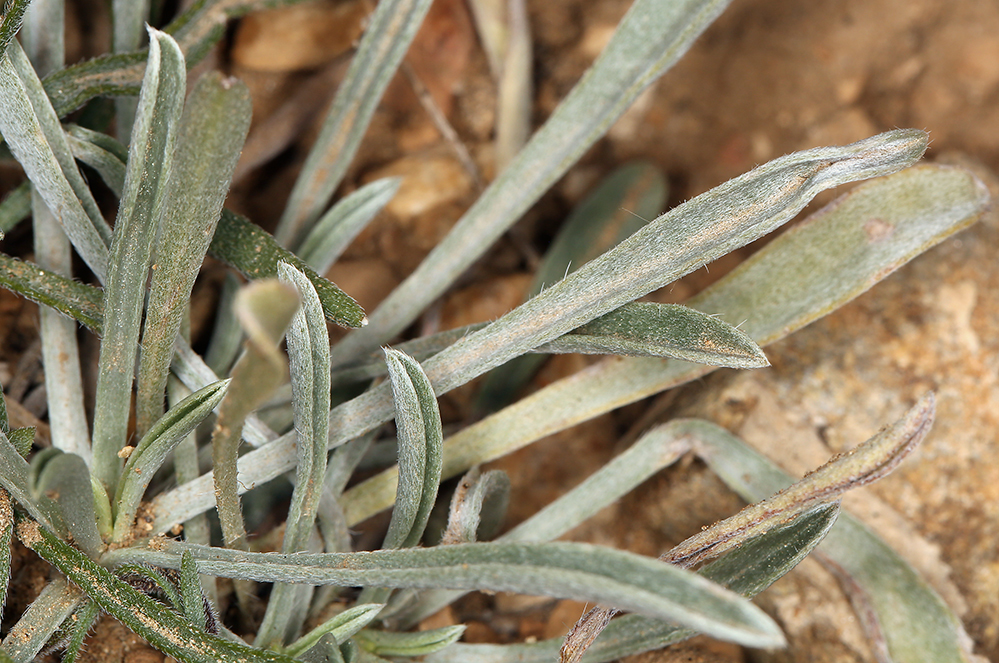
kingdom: Plantae
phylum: Tracheophyta
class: Magnoliopsida
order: Asterales
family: Asteraceae
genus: Erigeron
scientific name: Erigeron clokeyi
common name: Clokey's fleabane
